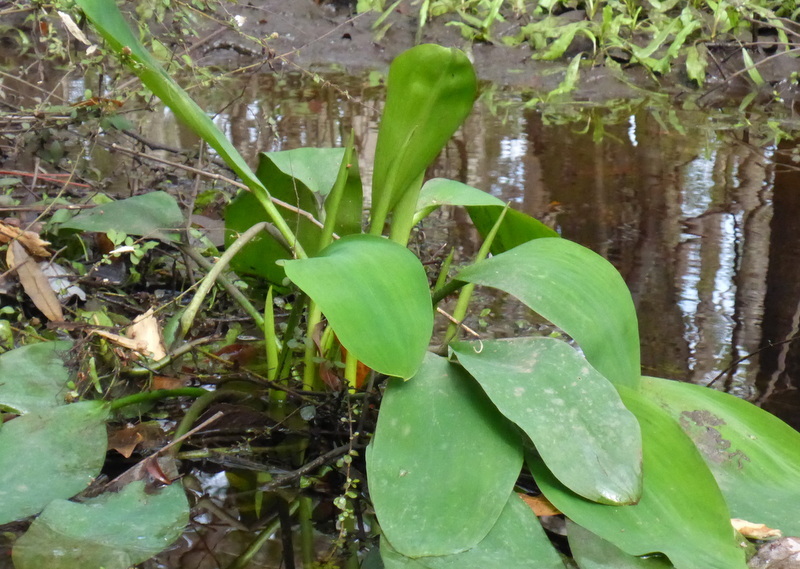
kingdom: Plantae
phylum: Tracheophyta
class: Liliopsida
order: Alismatales
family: Araceae
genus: Orontium
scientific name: Orontium aquaticum
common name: Golden-club
